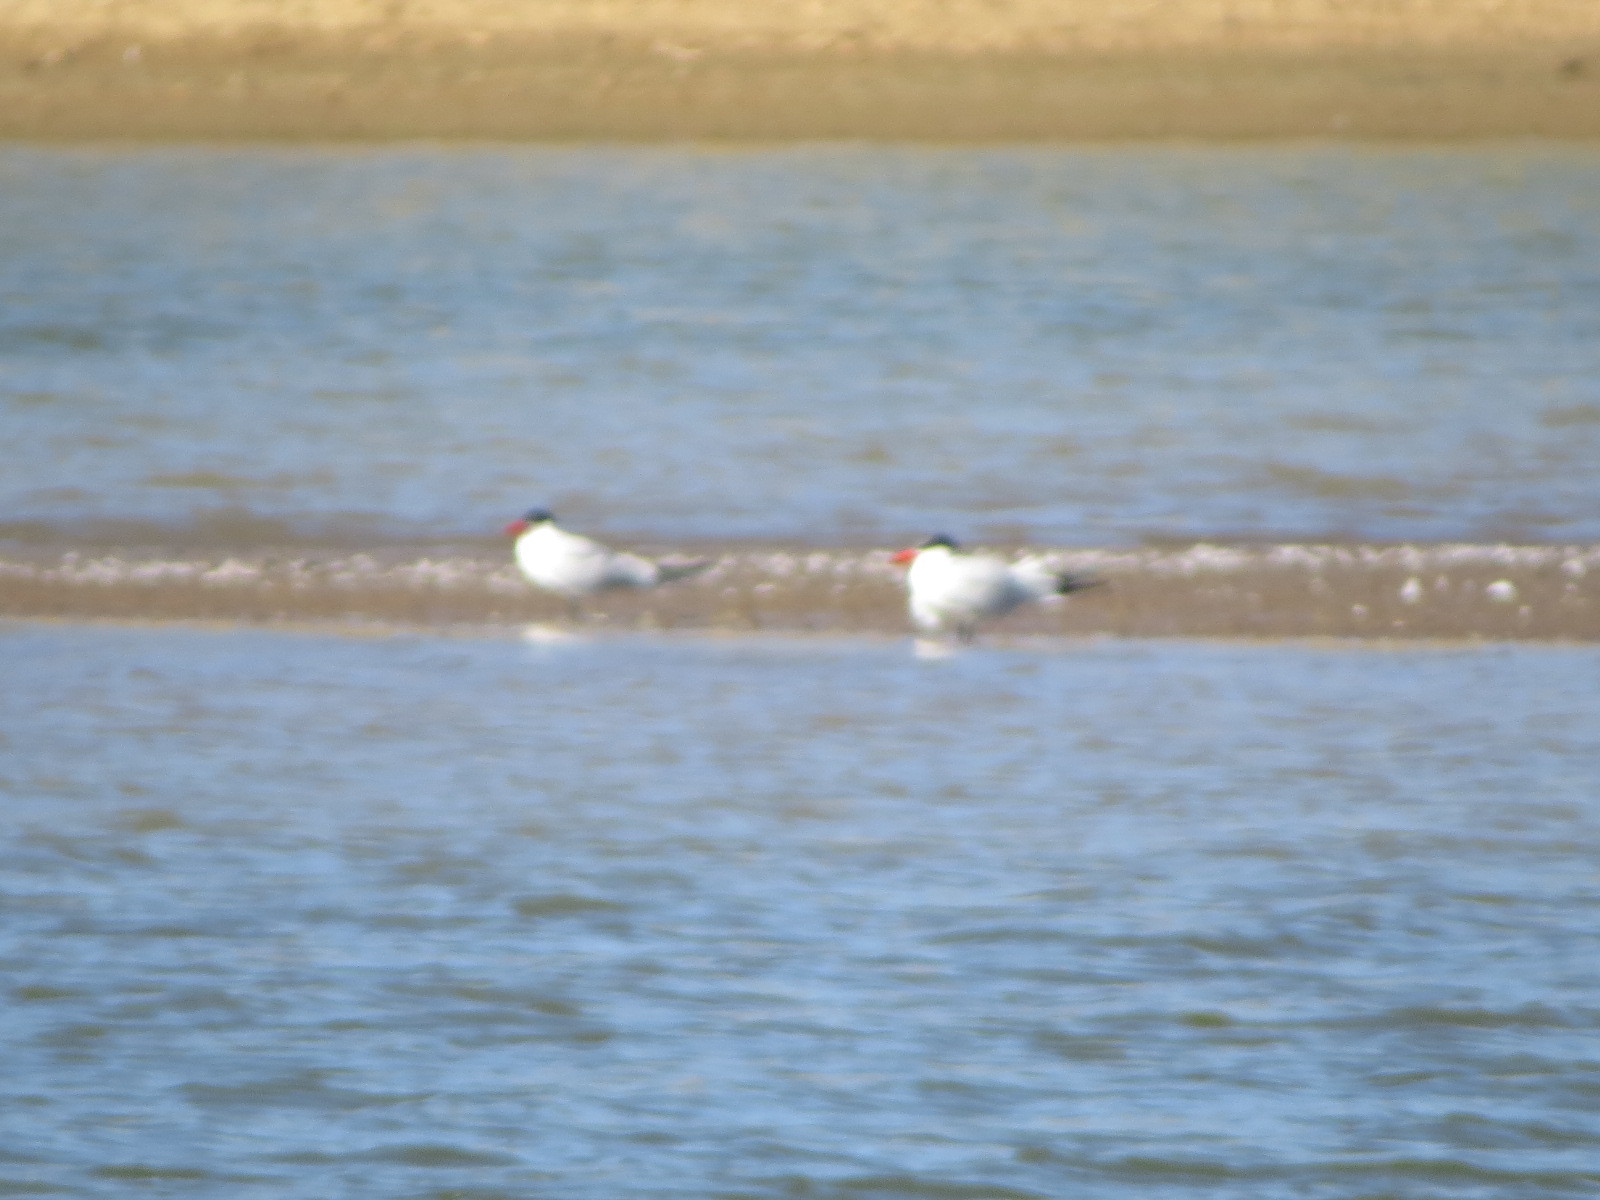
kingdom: Animalia
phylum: Chordata
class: Aves
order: Charadriiformes
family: Laridae
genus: Hydroprogne
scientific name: Hydroprogne caspia
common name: Caspian tern
